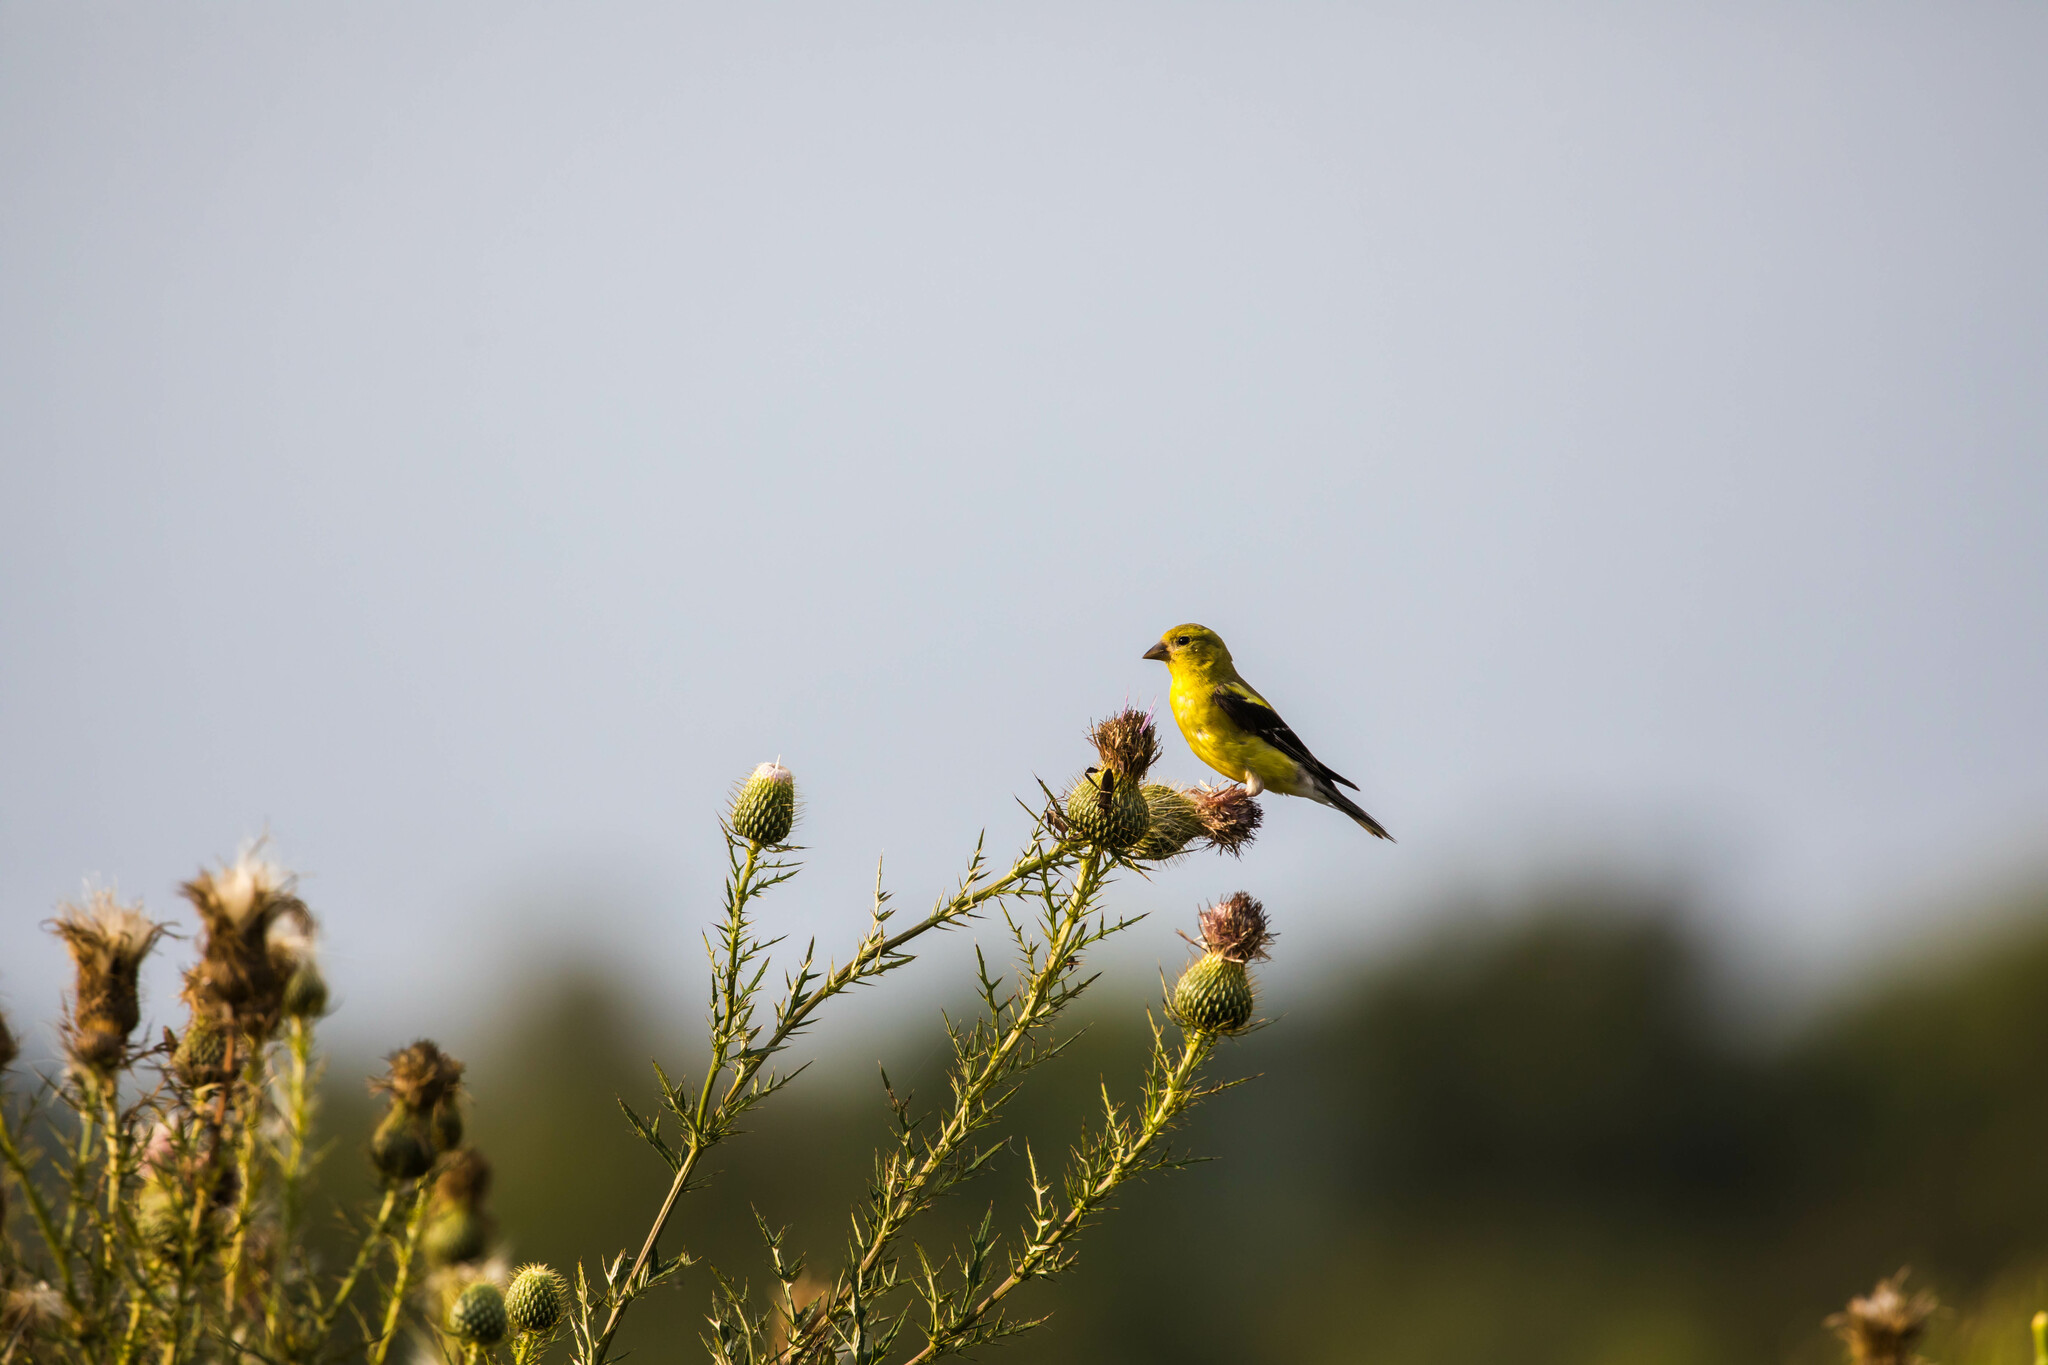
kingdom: Animalia
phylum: Chordata
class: Aves
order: Passeriformes
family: Fringillidae
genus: Spinus
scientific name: Spinus tristis
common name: American goldfinch
